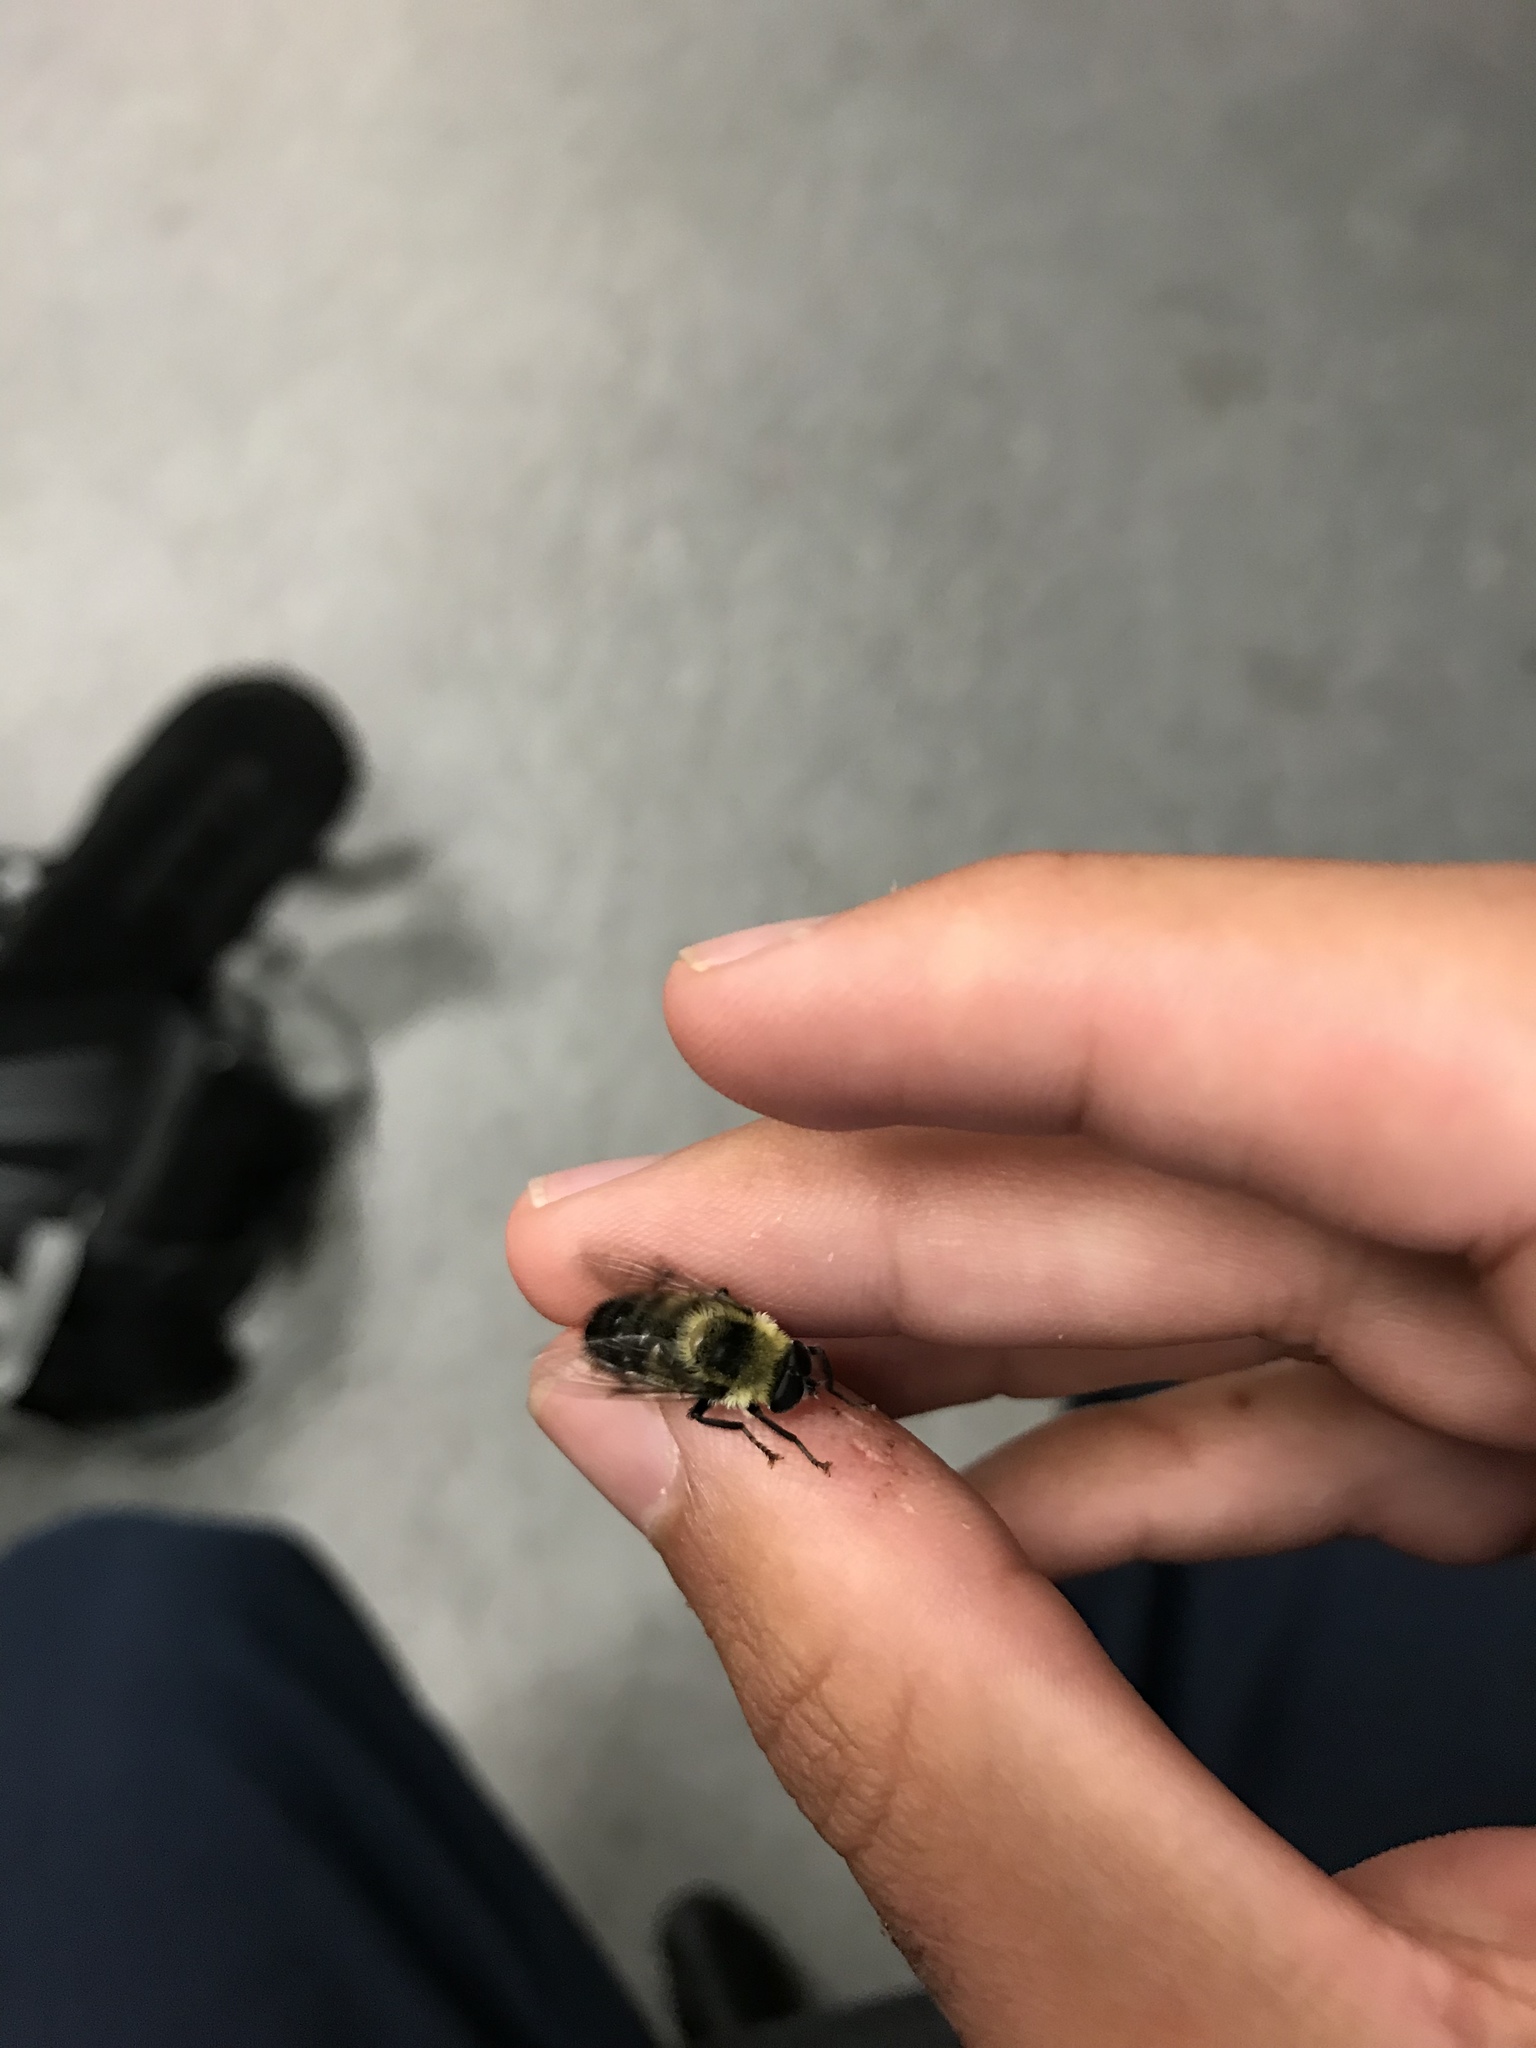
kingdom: Animalia
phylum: Arthropoda
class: Insecta
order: Diptera
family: Syrphidae
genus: Imatisma
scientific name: Imatisma posticata
